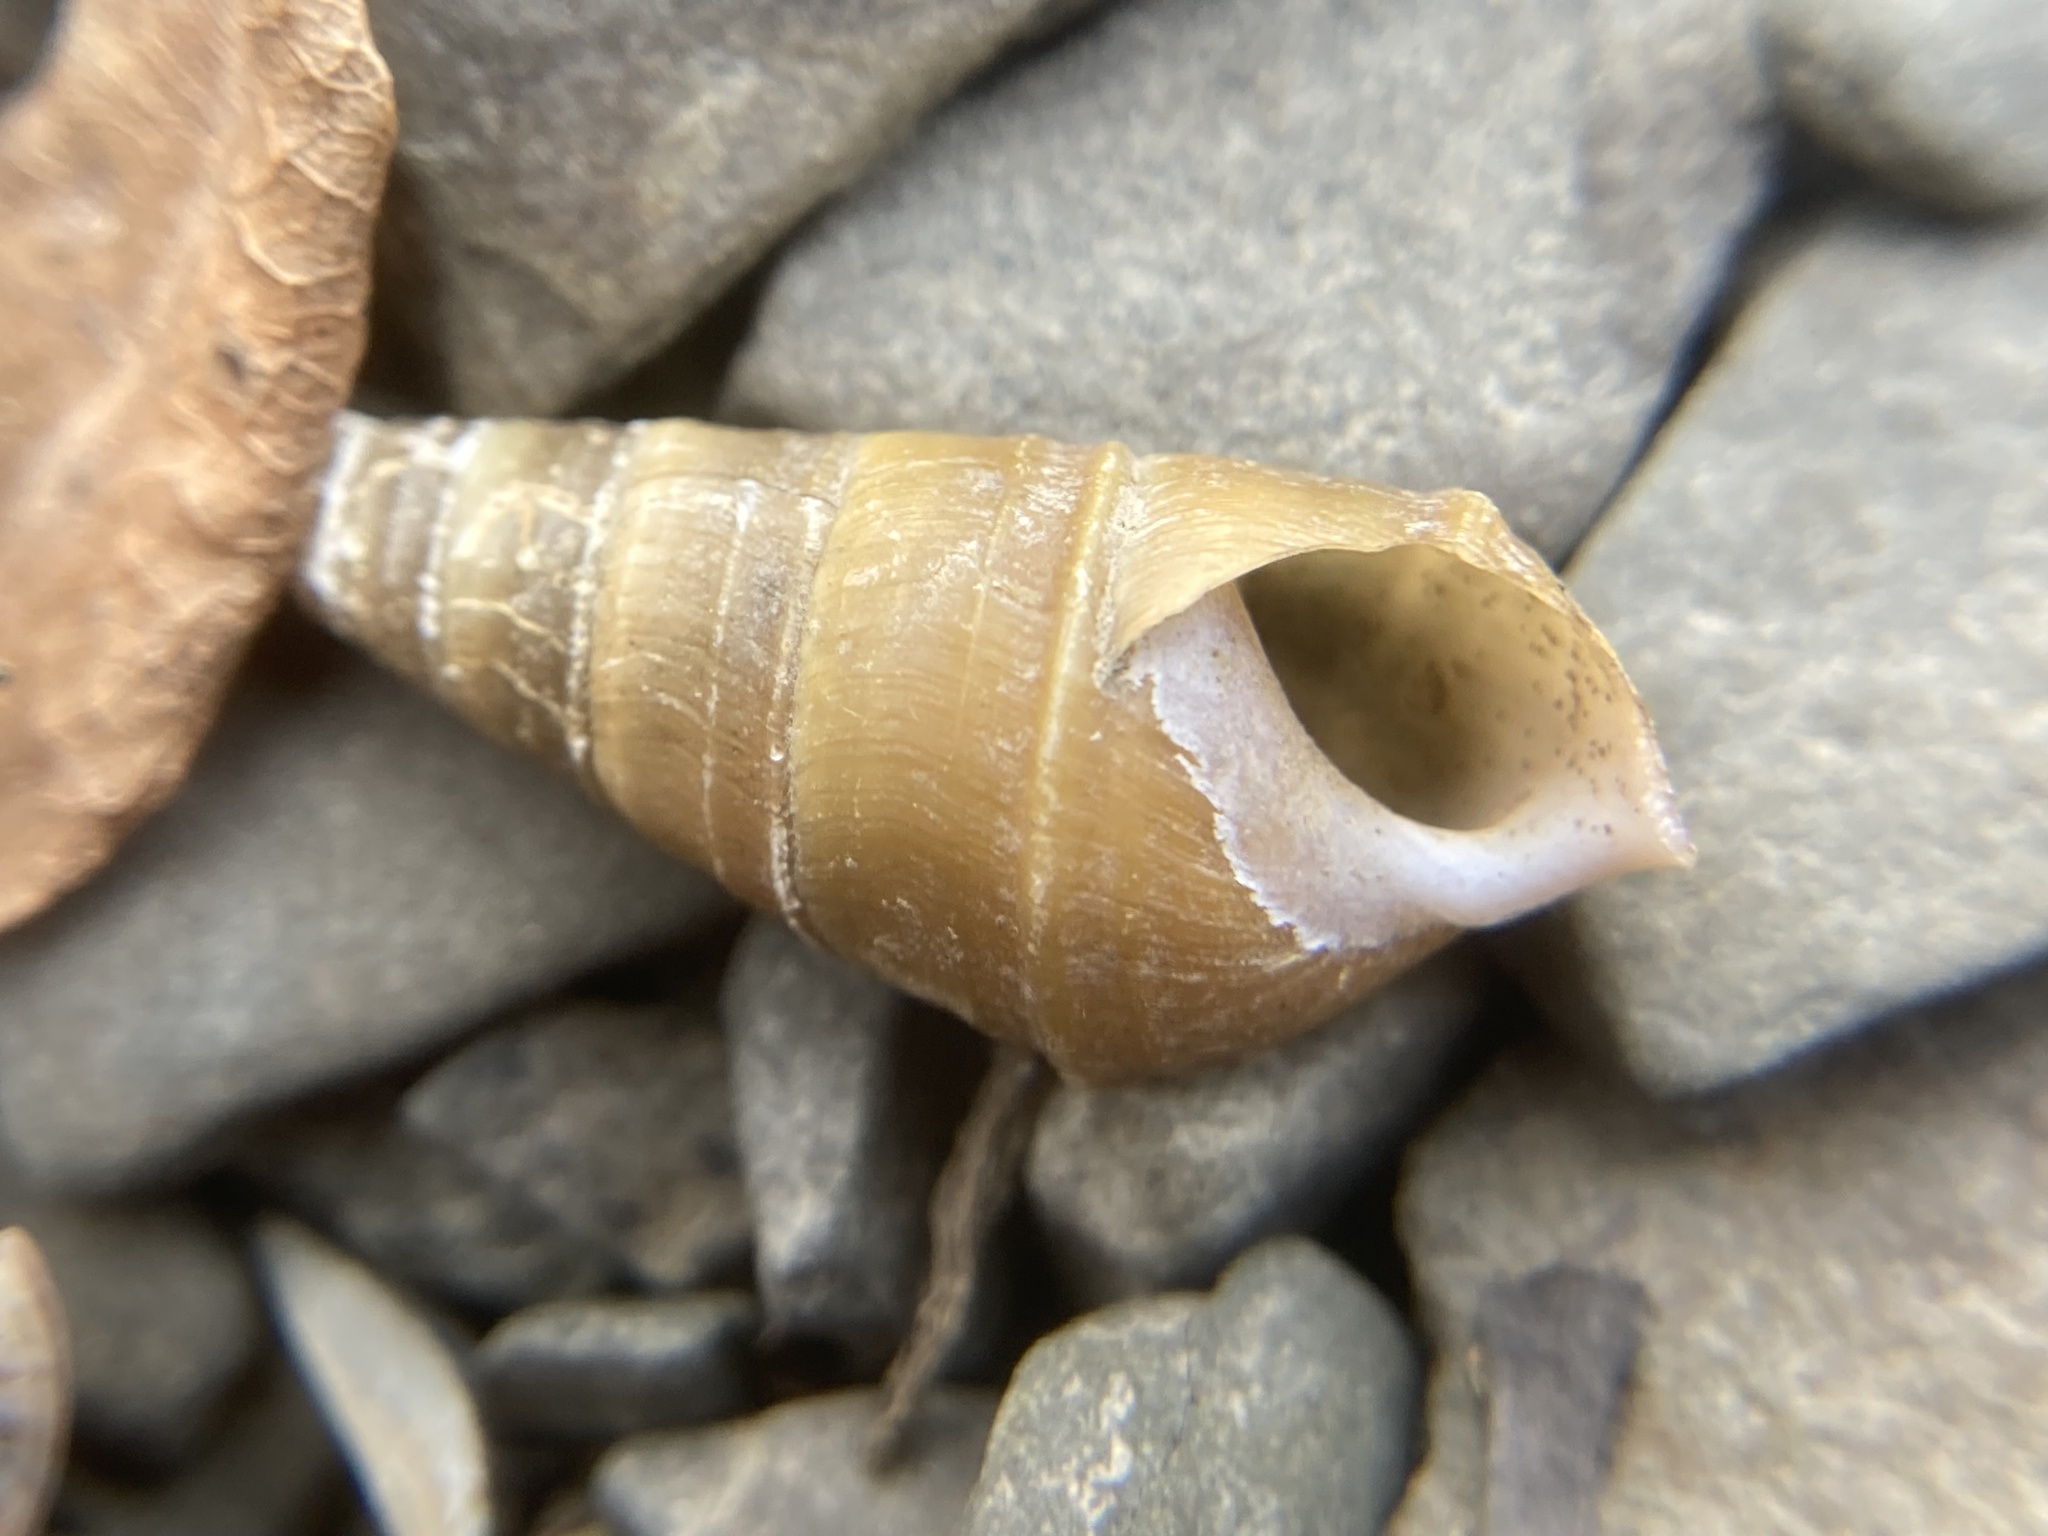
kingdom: Animalia
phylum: Mollusca
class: Gastropoda
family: Pleuroceridae
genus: Elimia
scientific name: Elimia virginica
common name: Piedmont elimia
